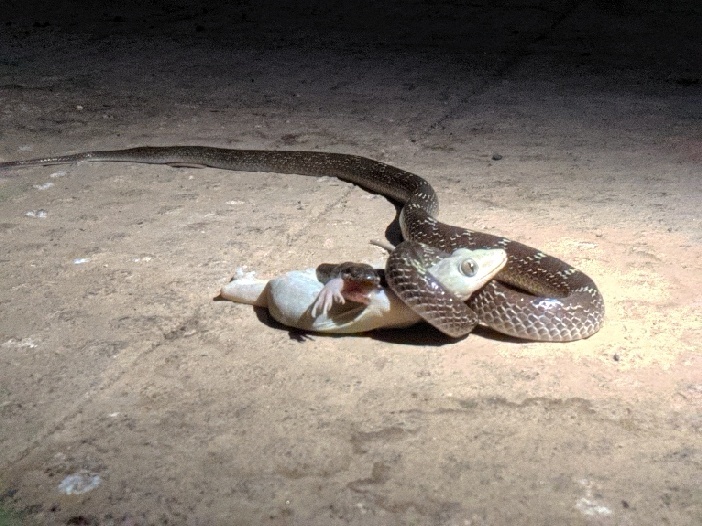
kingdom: Animalia
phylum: Chordata
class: Squamata
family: Colubridae
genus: Lycodon
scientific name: Lycodon aulicus
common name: Common wolf snake
